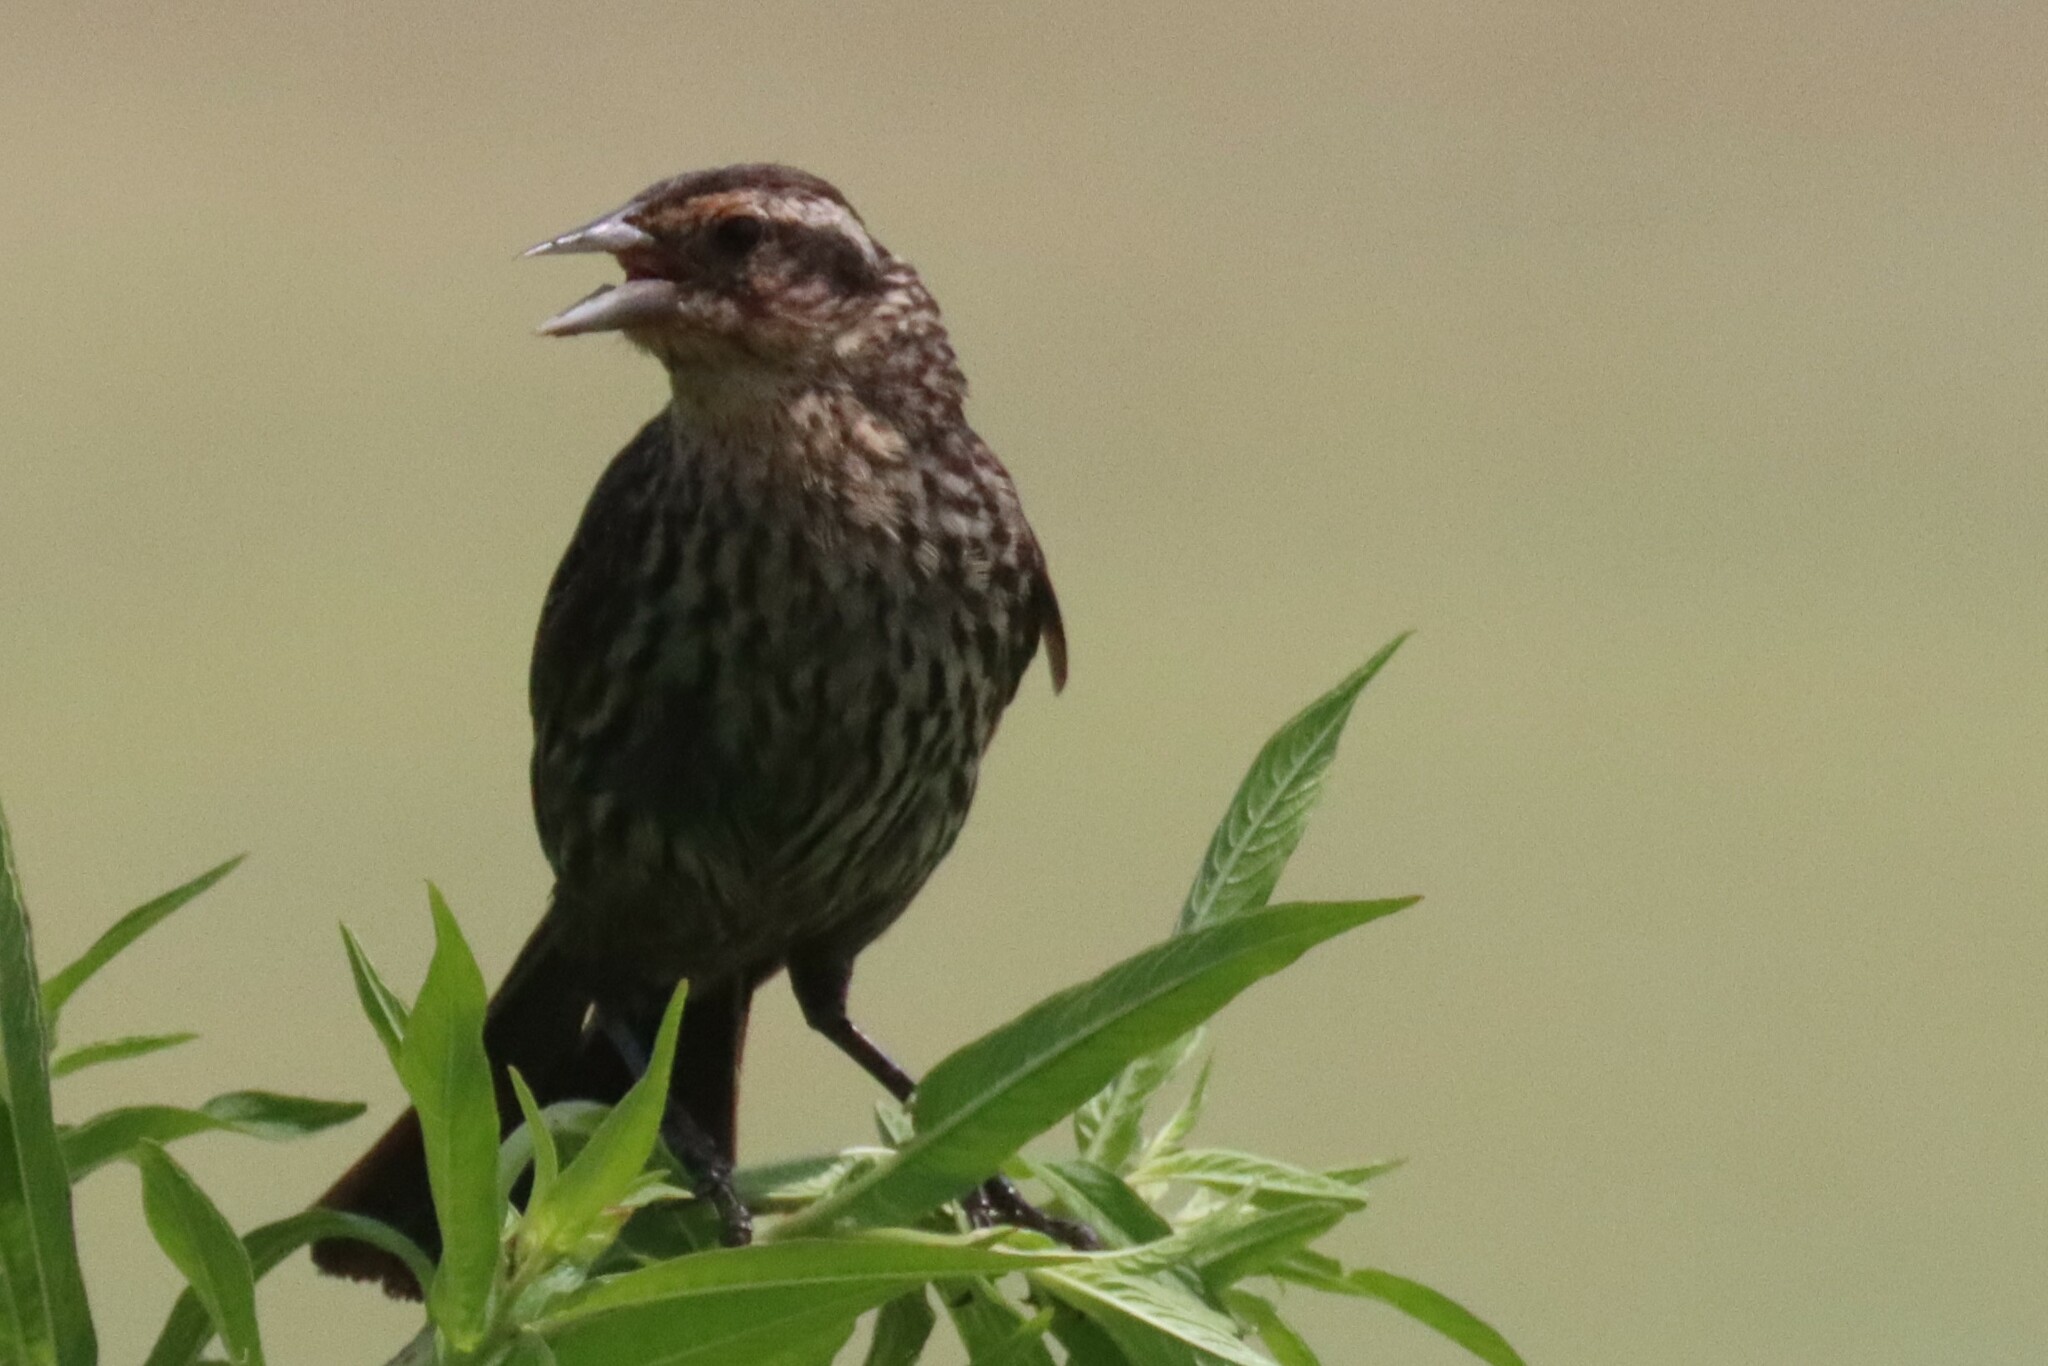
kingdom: Animalia
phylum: Chordata
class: Aves
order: Passeriformes
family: Icteridae
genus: Agelaius
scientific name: Agelaius phoeniceus
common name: Red-winged blackbird
